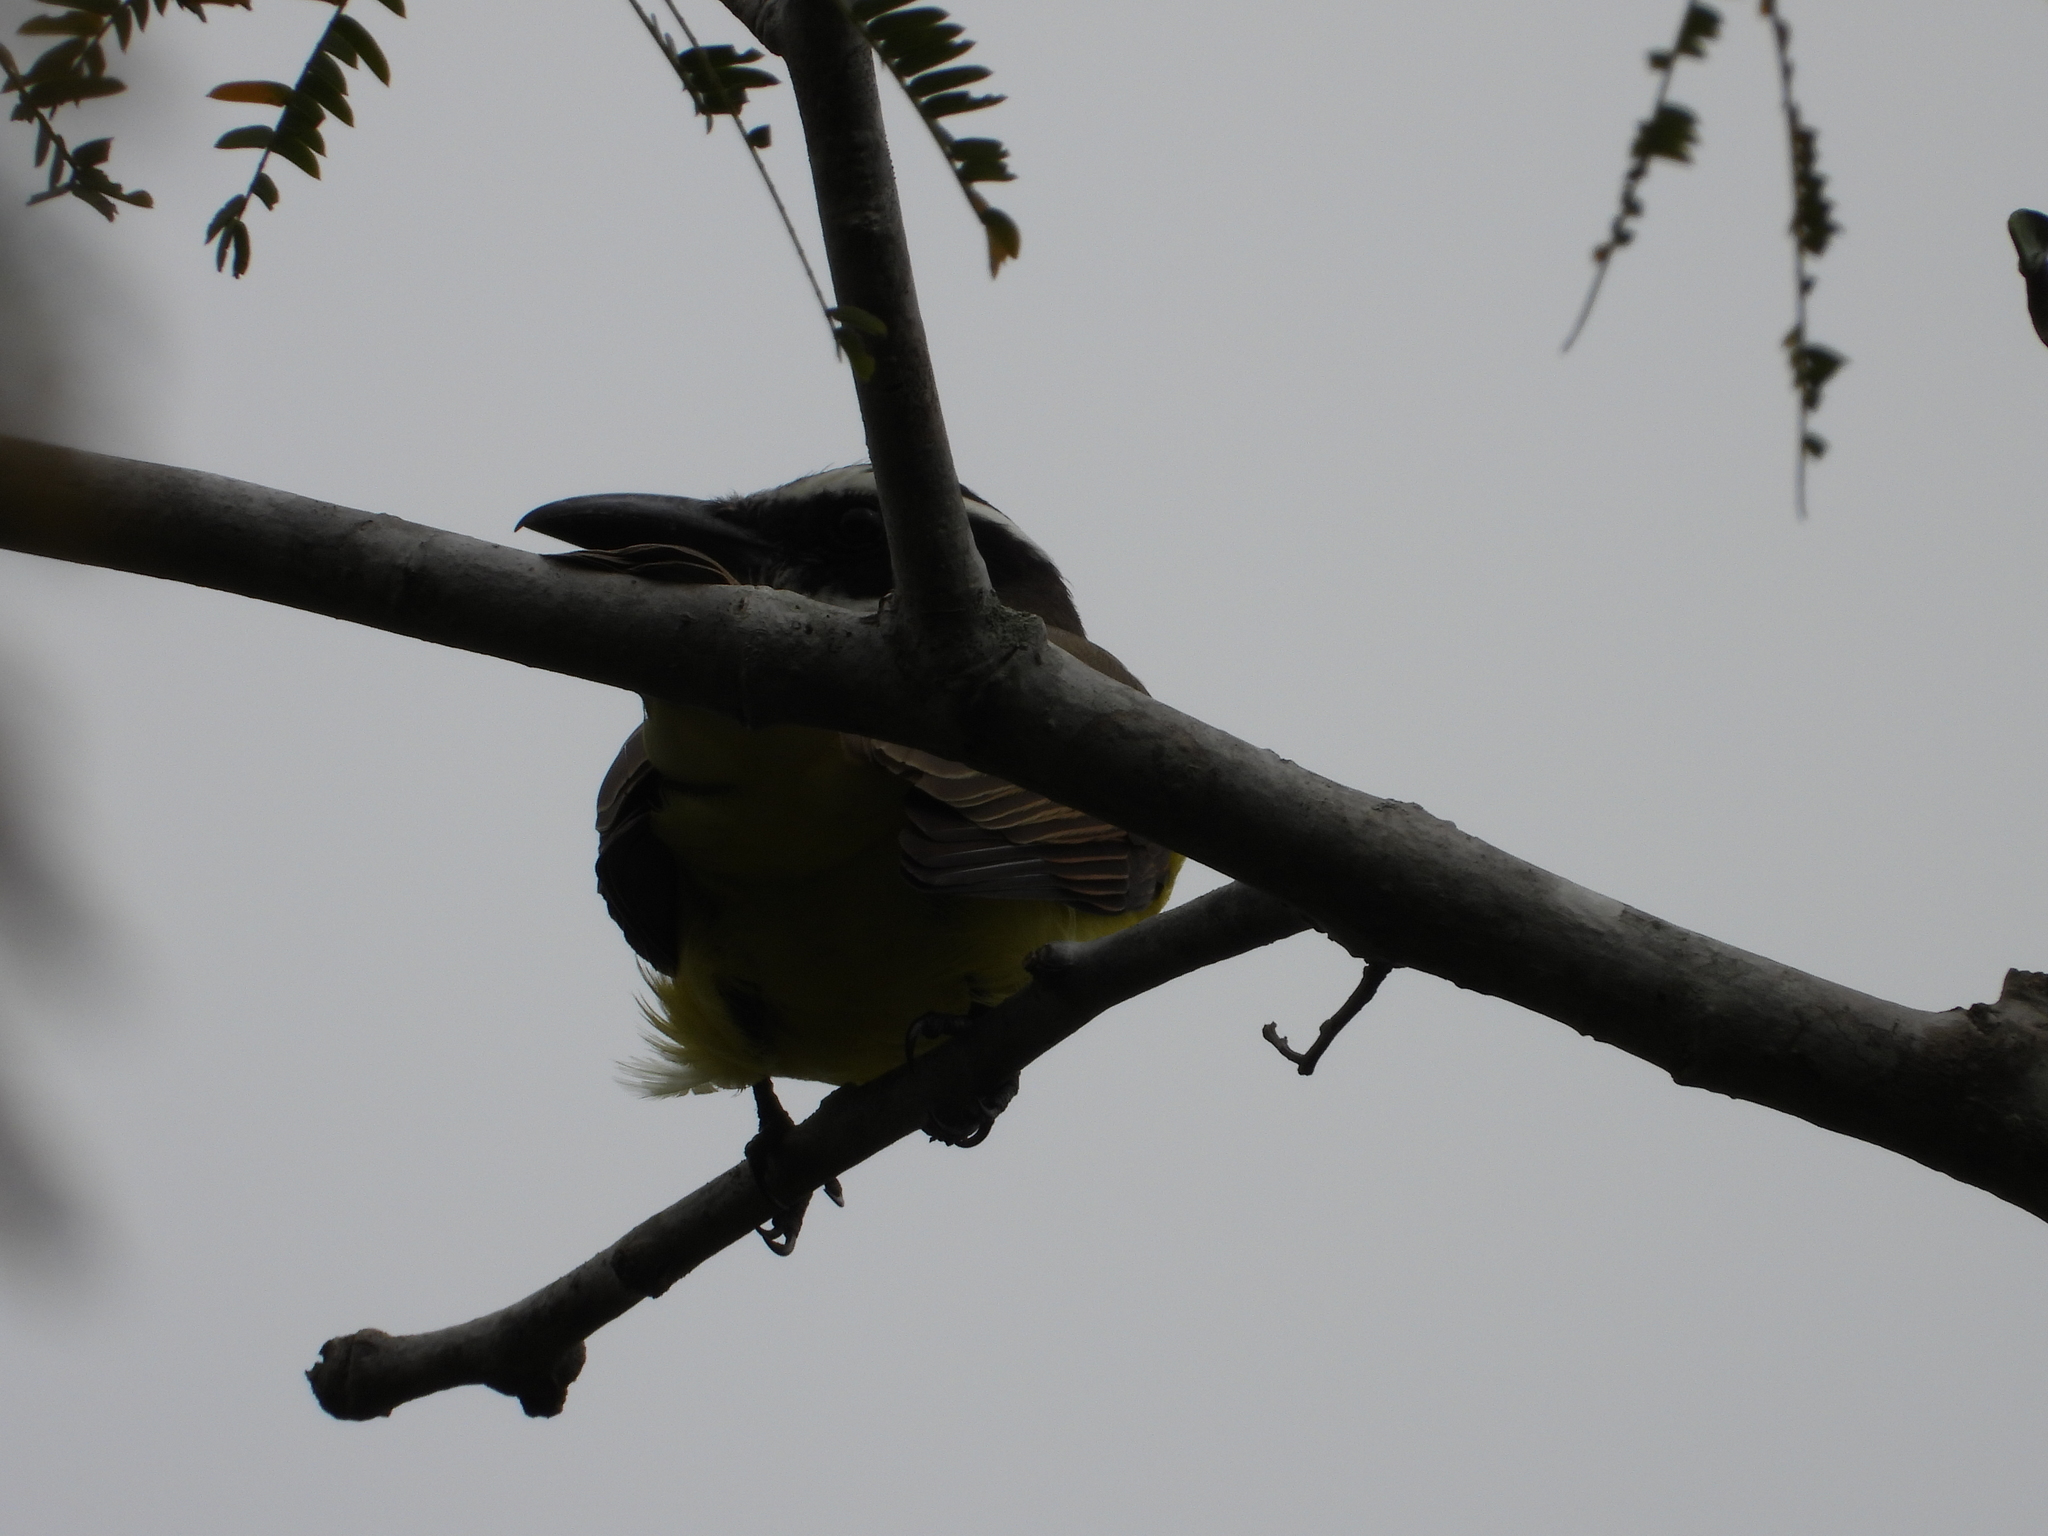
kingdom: Animalia
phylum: Chordata
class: Aves
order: Passeriformes
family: Tyrannidae
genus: Megarynchus
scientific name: Megarynchus pitangua
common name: Boat-billed flycatcher
